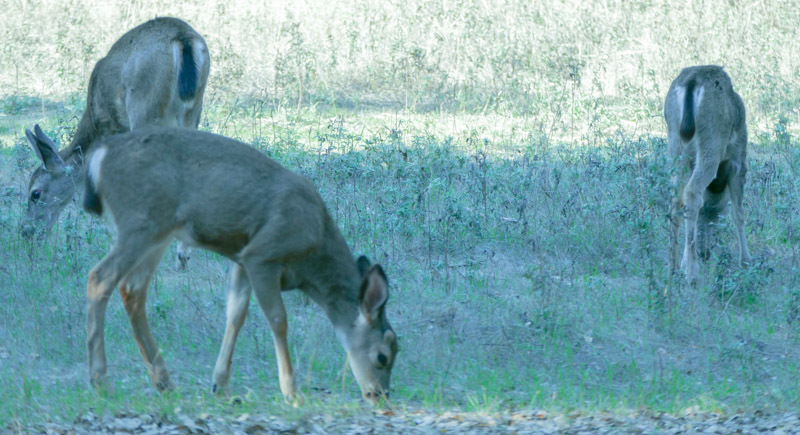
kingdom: Animalia
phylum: Chordata
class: Mammalia
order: Artiodactyla
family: Cervidae
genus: Odocoileus
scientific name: Odocoileus hemionus
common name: Mule deer
